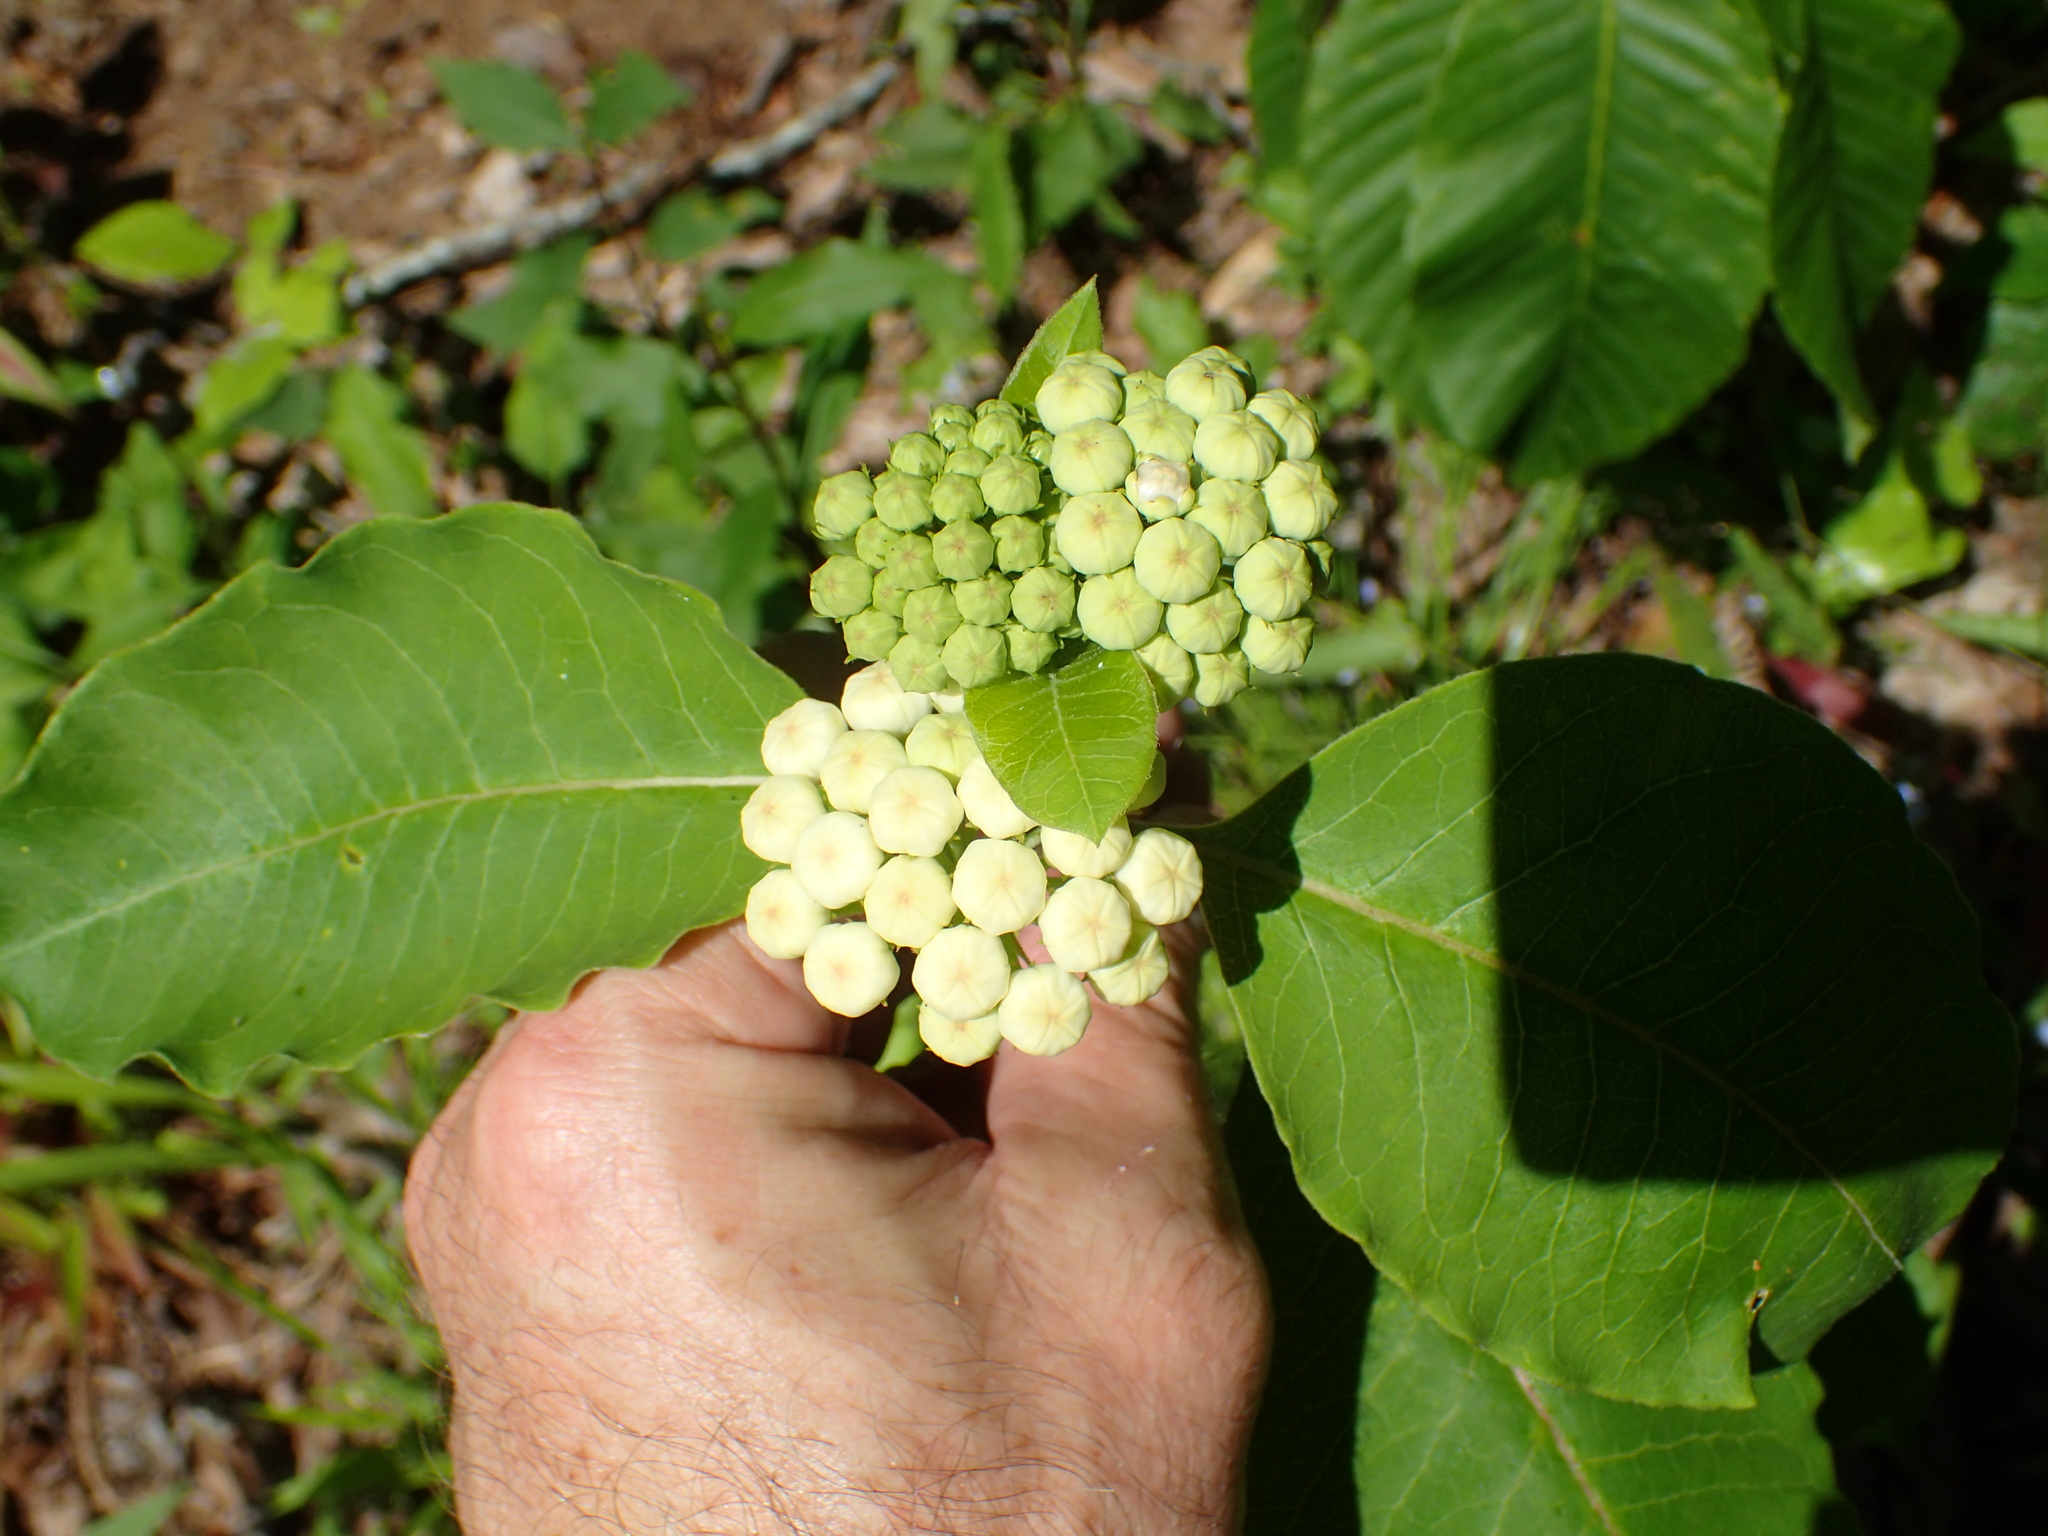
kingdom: Plantae
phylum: Tracheophyta
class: Magnoliopsida
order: Gentianales
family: Apocynaceae
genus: Asclepias
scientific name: Asclepias variegata
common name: Variegated milkweed
